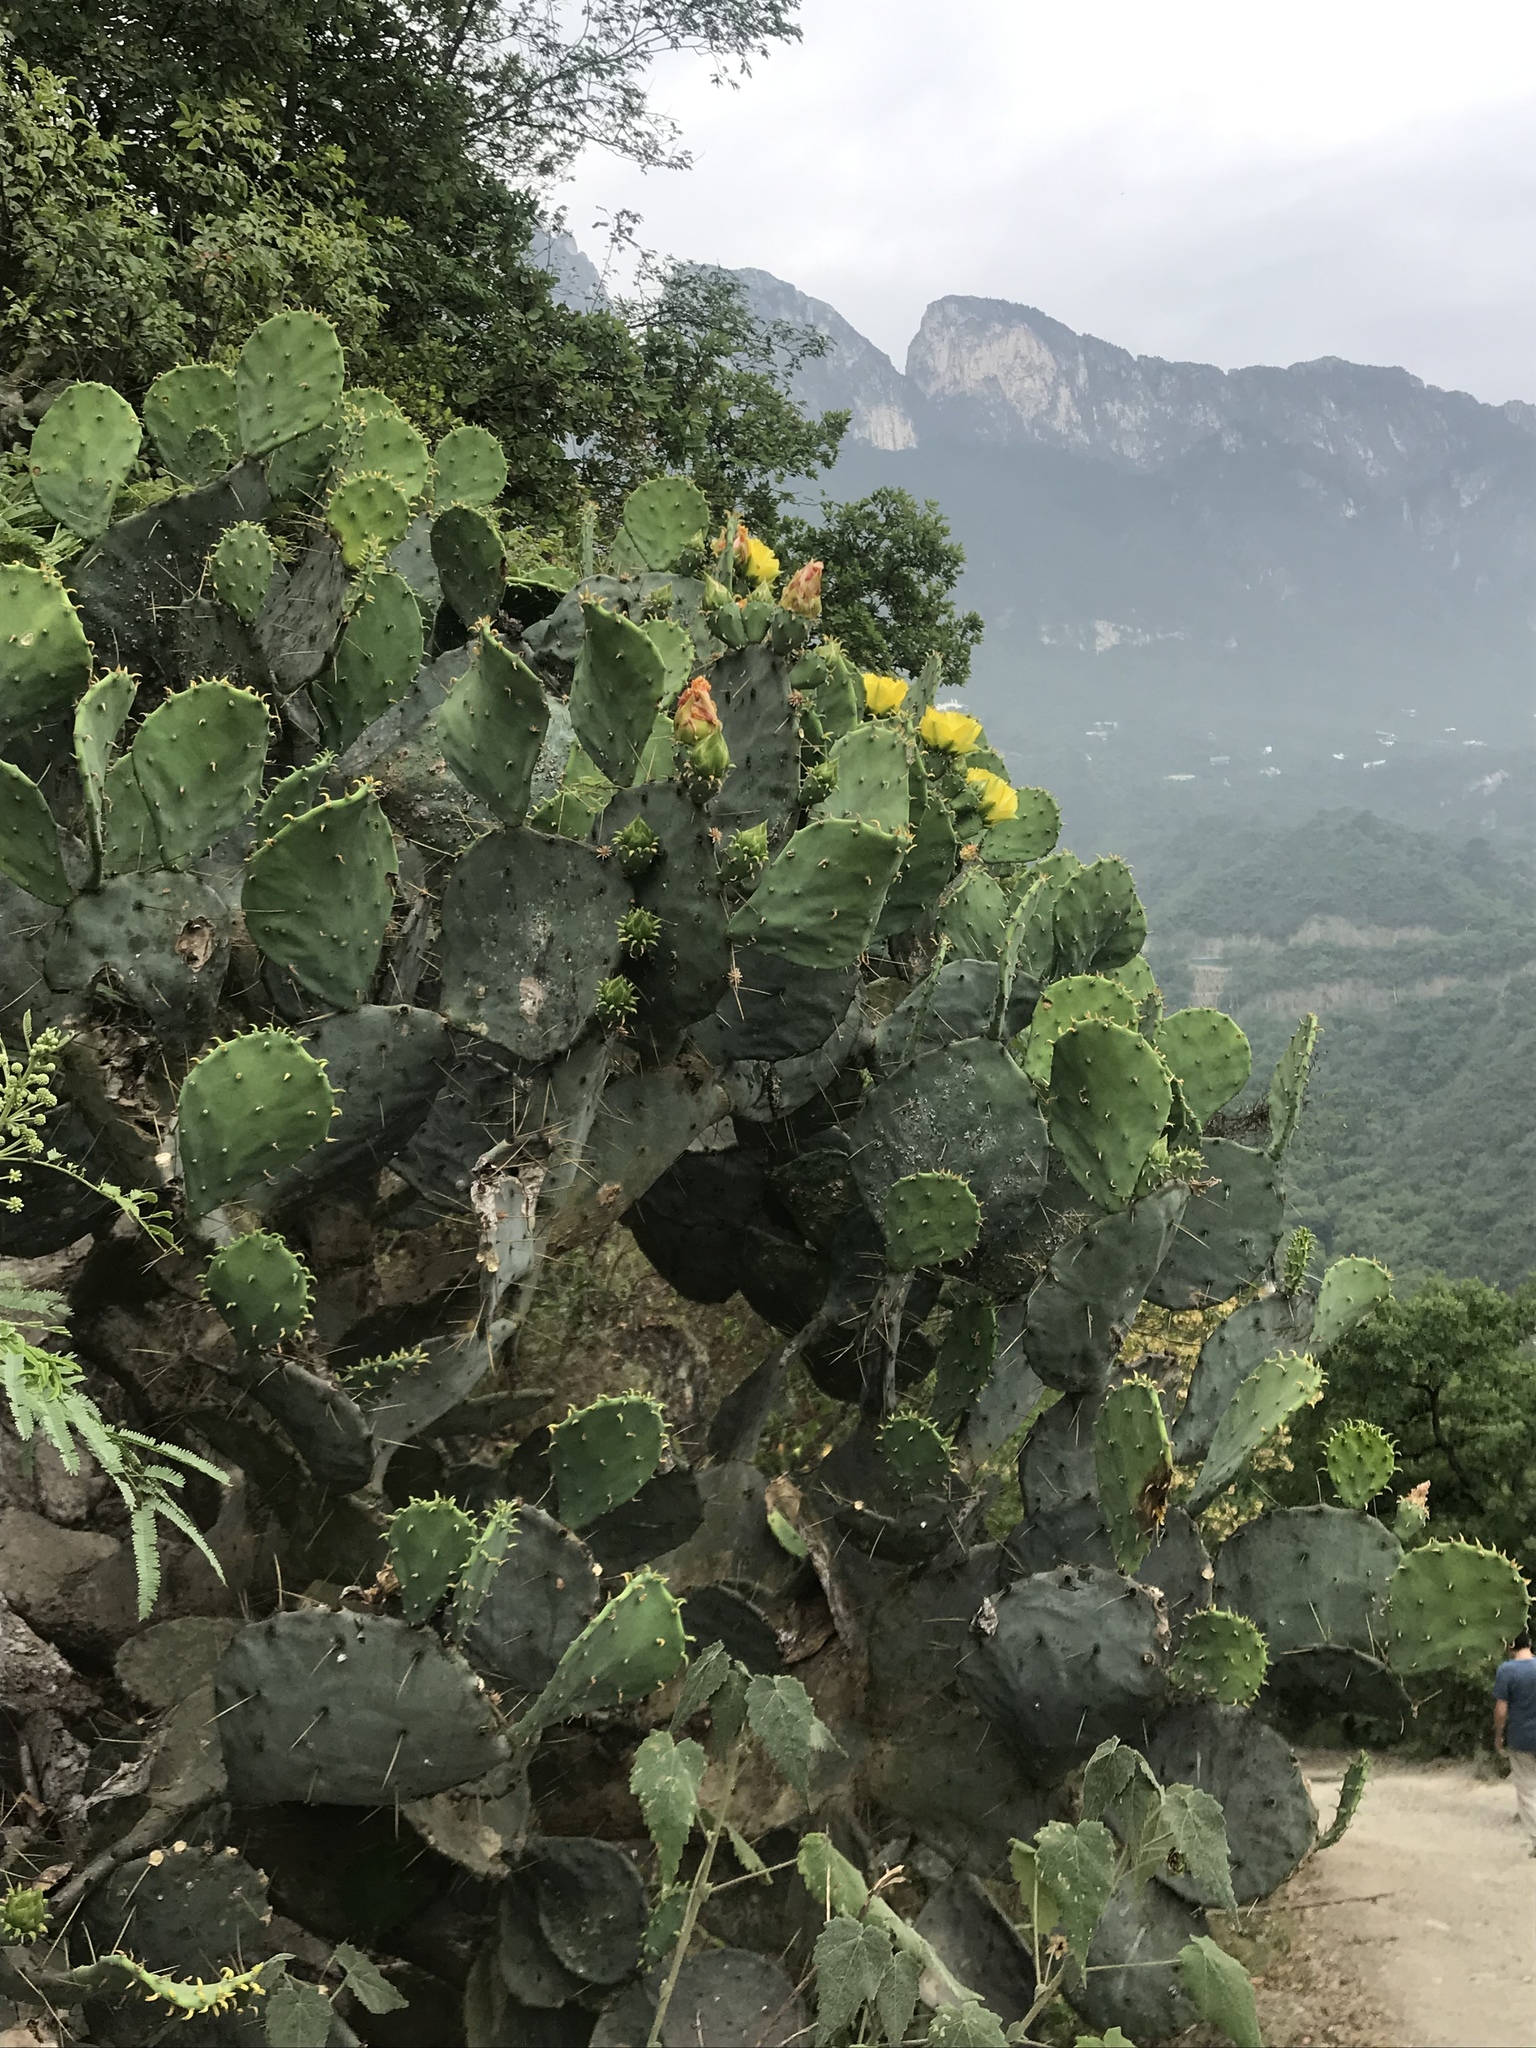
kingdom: Plantae
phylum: Tracheophyta
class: Magnoliopsida
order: Caryophyllales
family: Cactaceae
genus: Opuntia
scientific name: Opuntia engelmannii
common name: Cactus-apple
